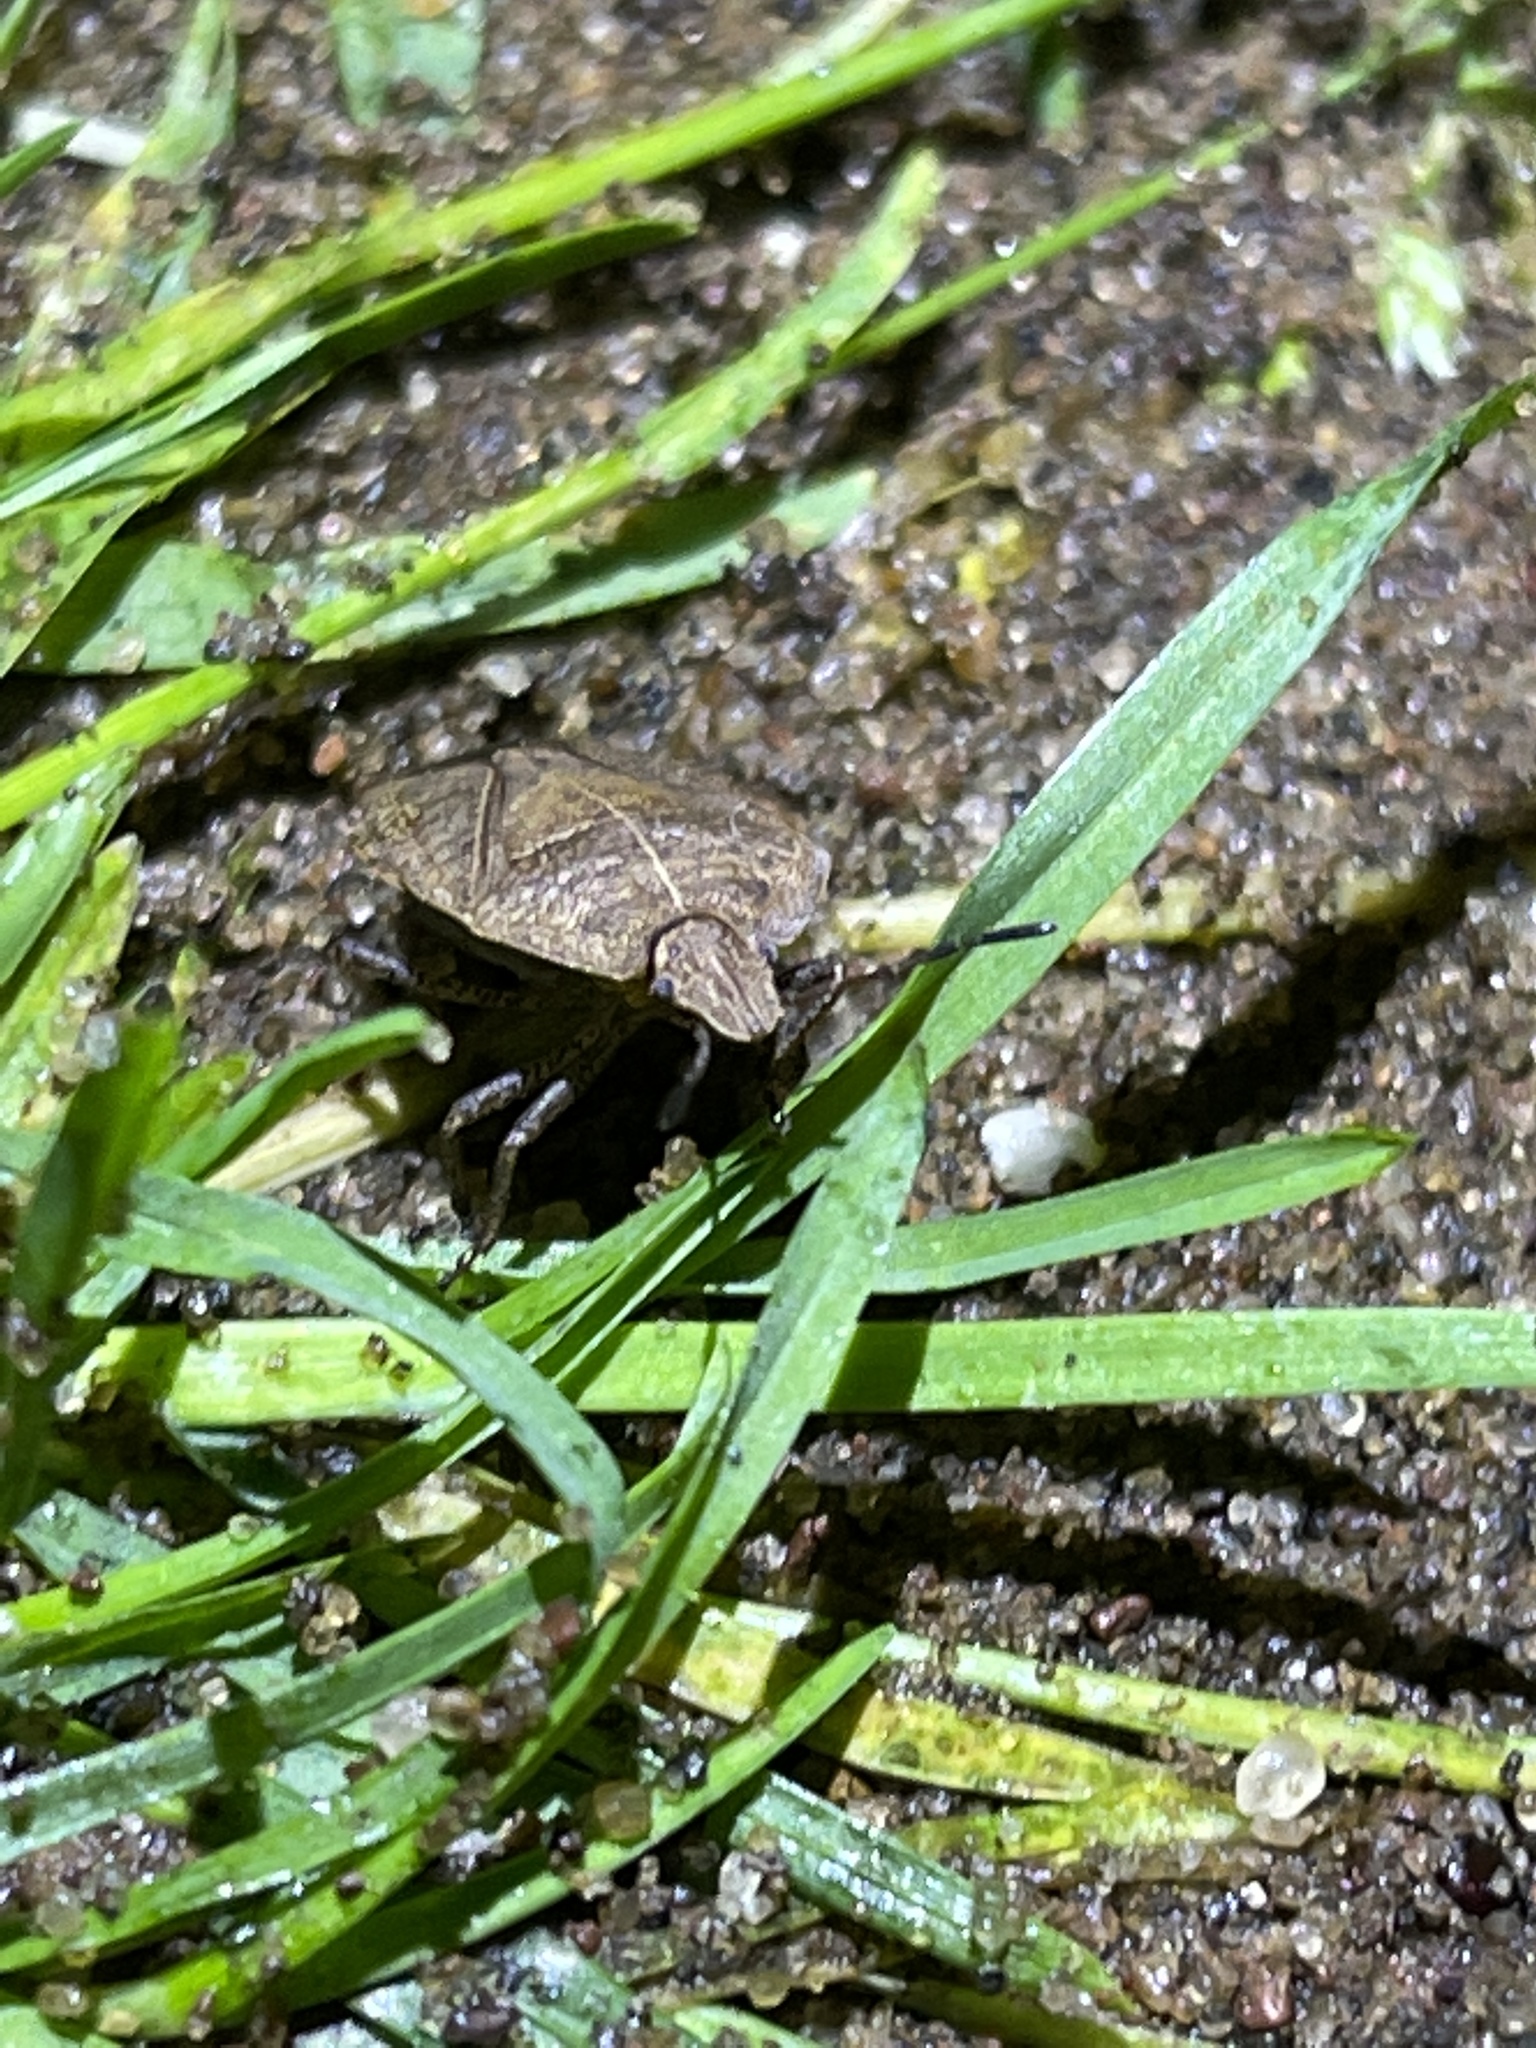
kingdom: Animalia
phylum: Arthropoda
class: Insecta
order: Hemiptera
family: Pentatomidae
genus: Menecles
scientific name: Menecles insertus
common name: Elf shoe stink bug
